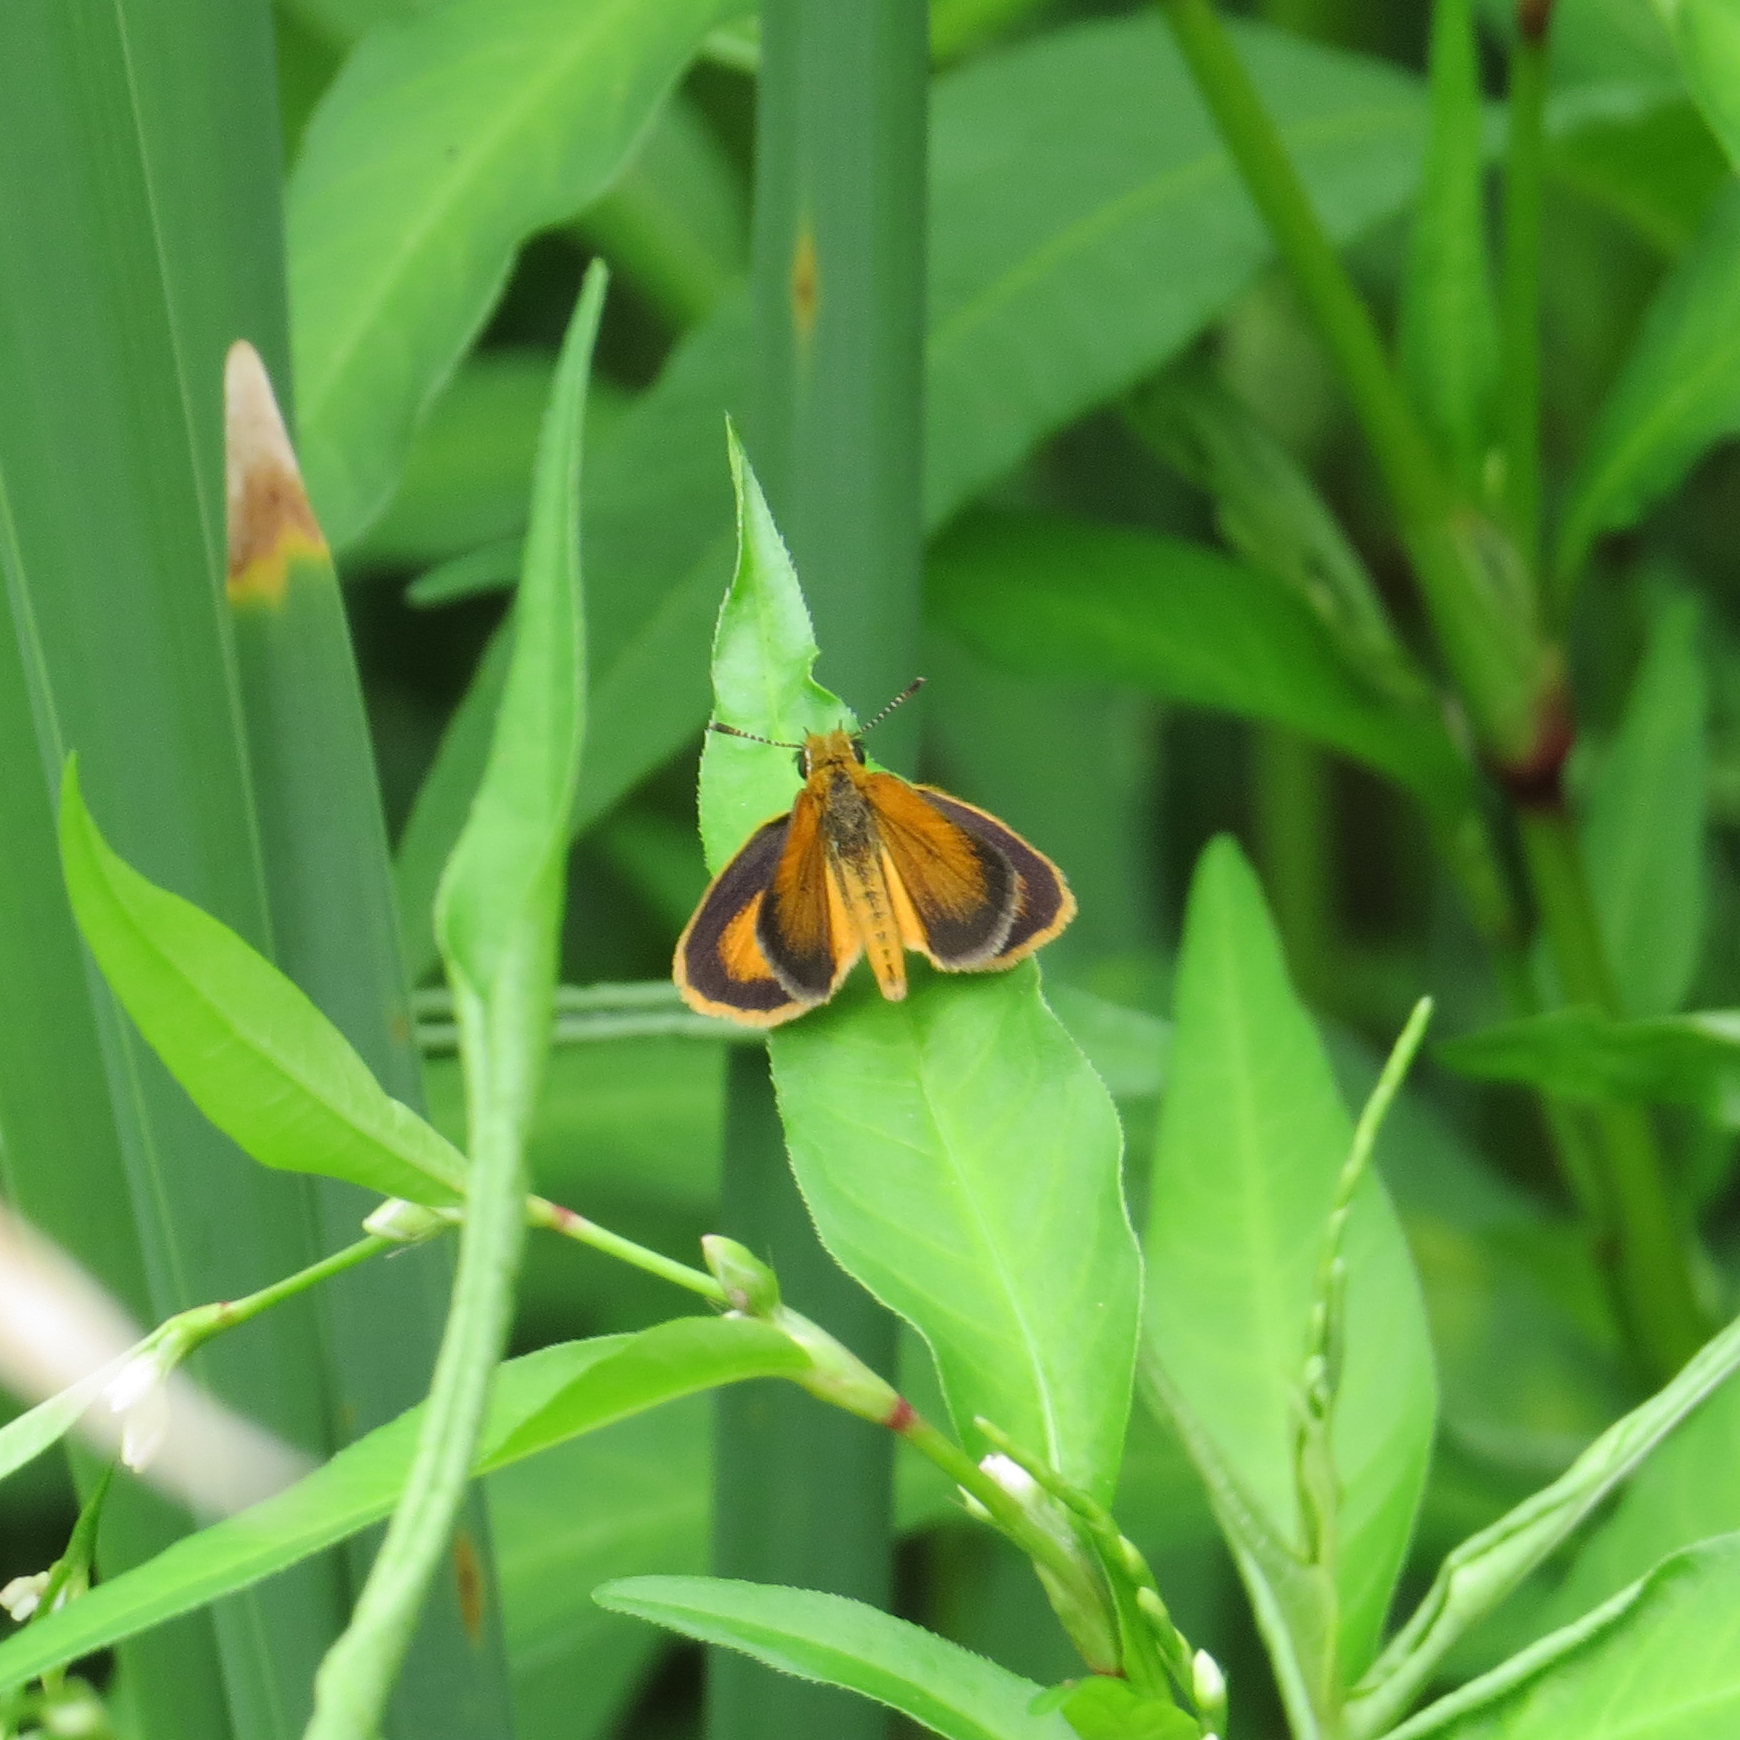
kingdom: Animalia
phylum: Arthropoda
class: Insecta
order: Lepidoptera
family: Hesperiidae
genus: Ancyloxypha
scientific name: Ancyloxypha numitor
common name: Least skipper
